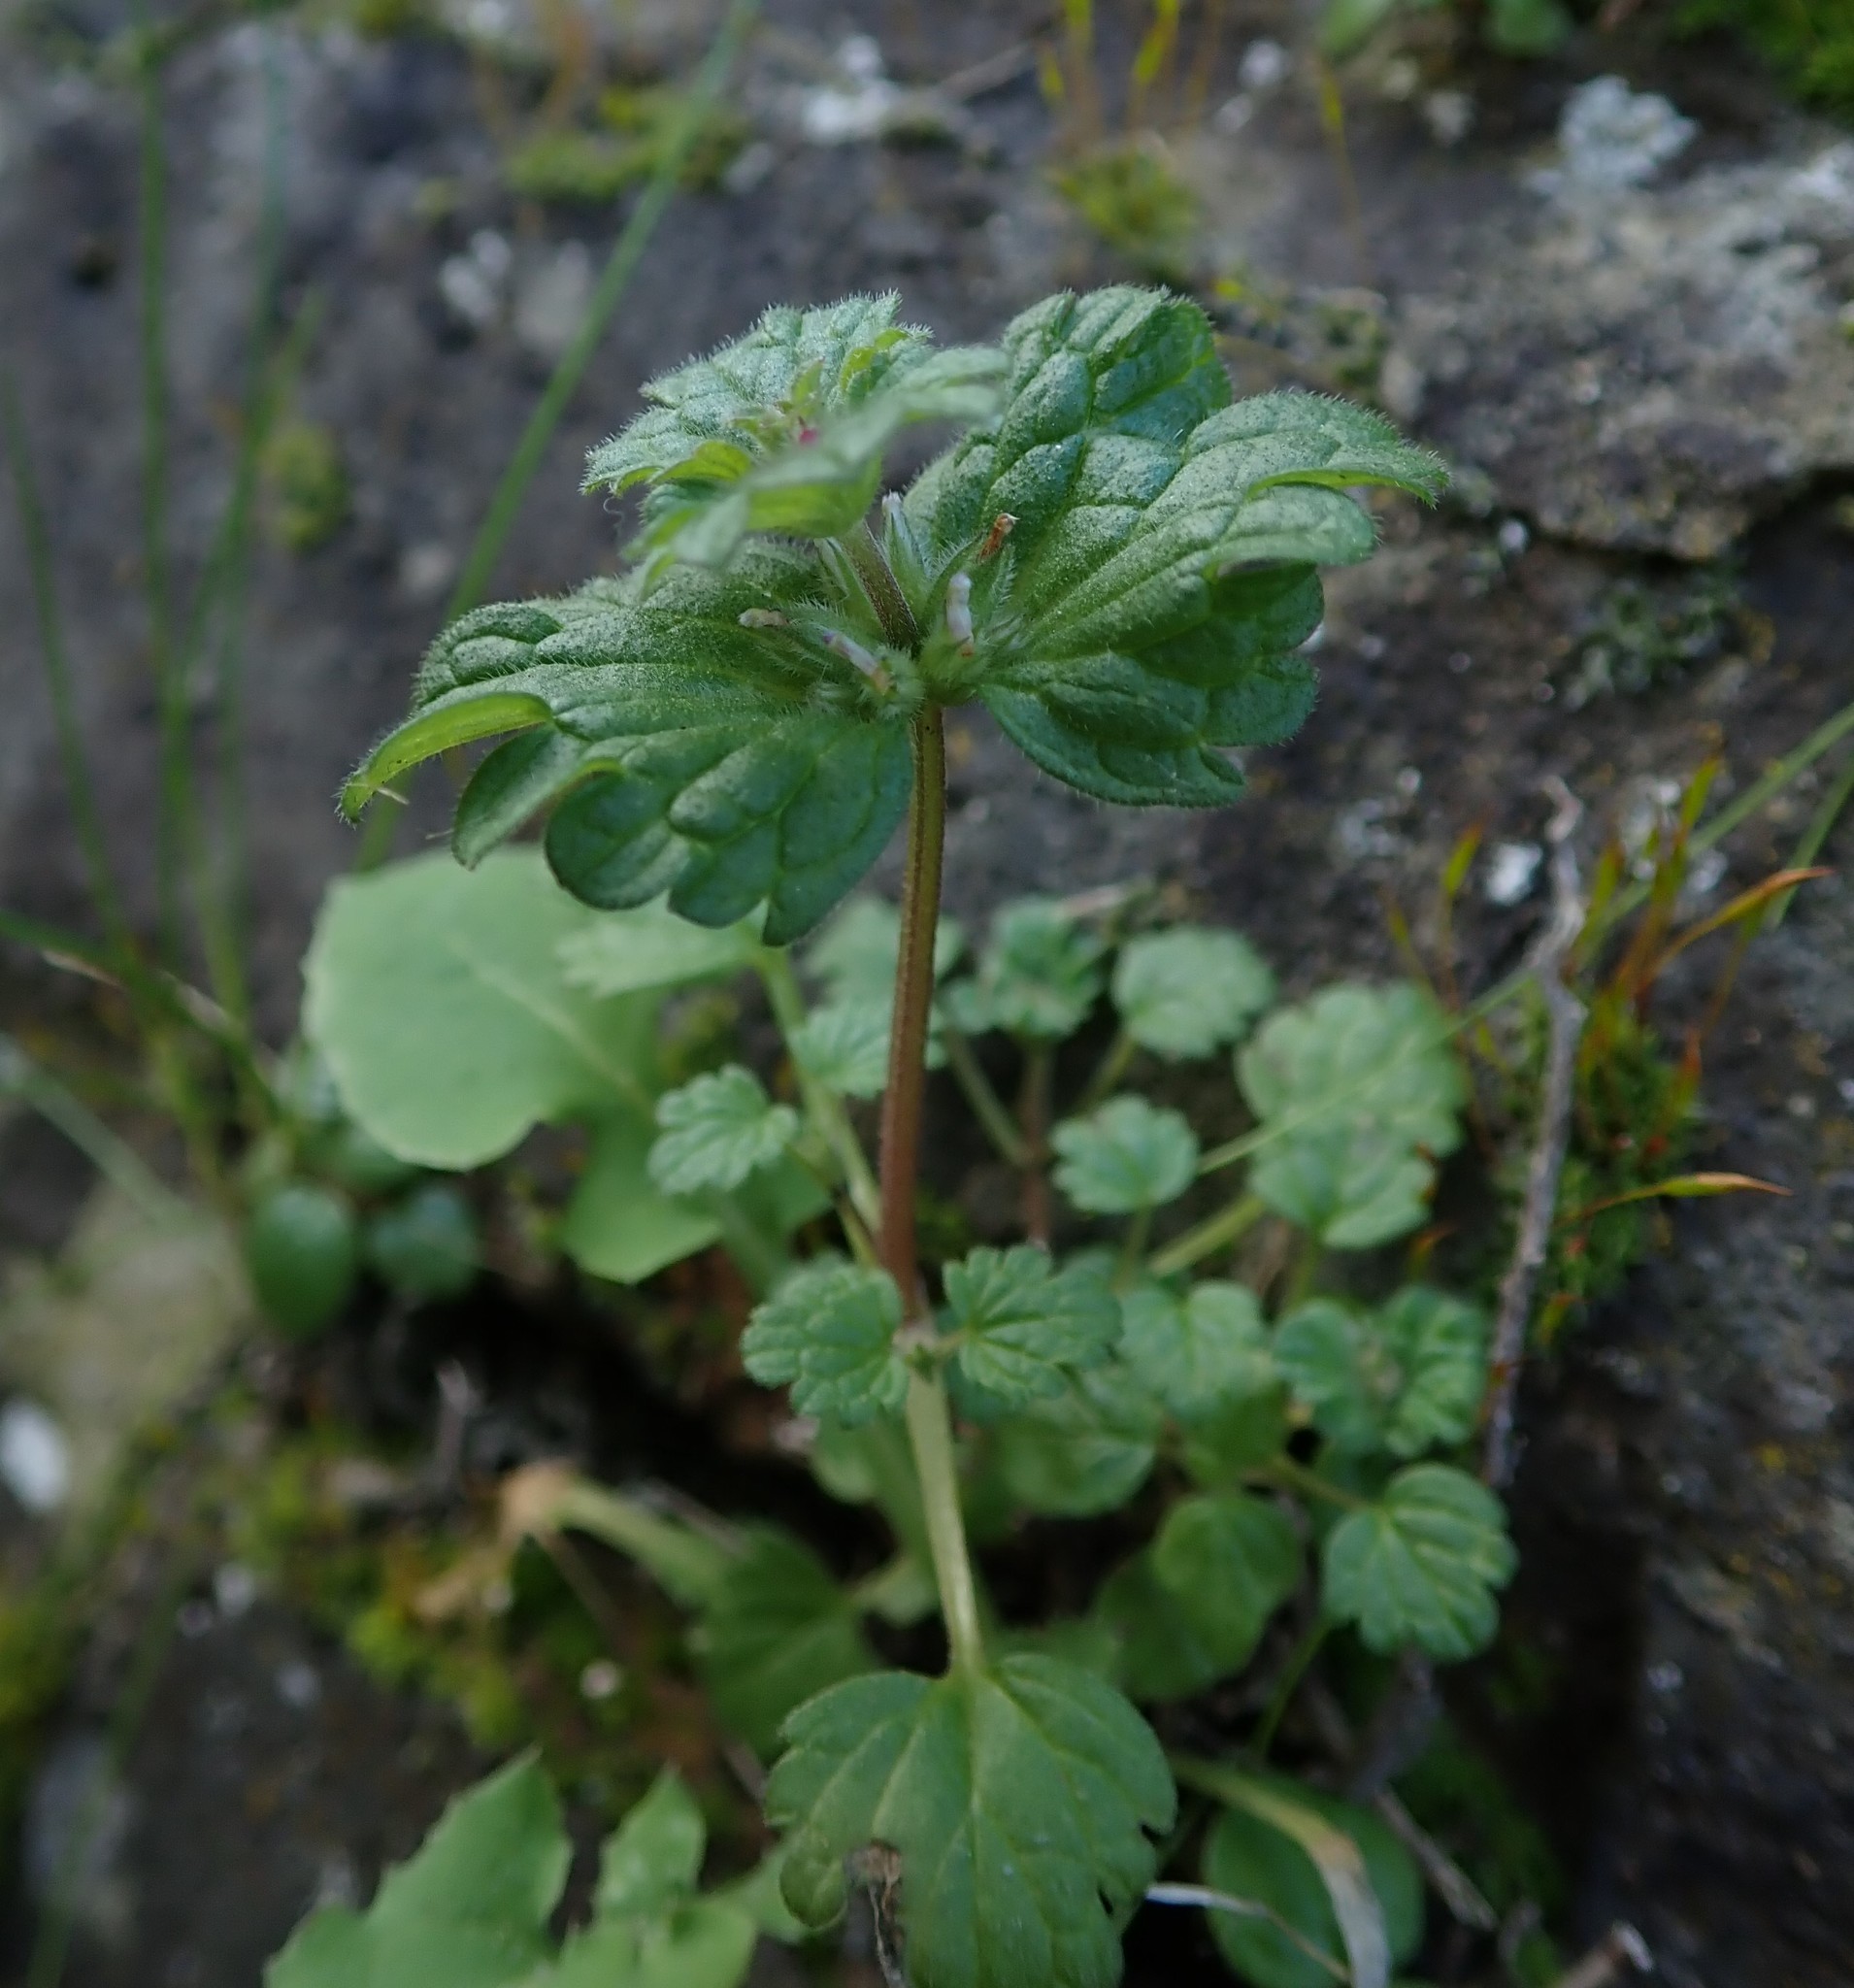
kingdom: Plantae
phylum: Tracheophyta
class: Magnoliopsida
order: Lamiales
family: Lamiaceae
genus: Lamium
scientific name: Lamium amplexicaule
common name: Henbit dead-nettle
